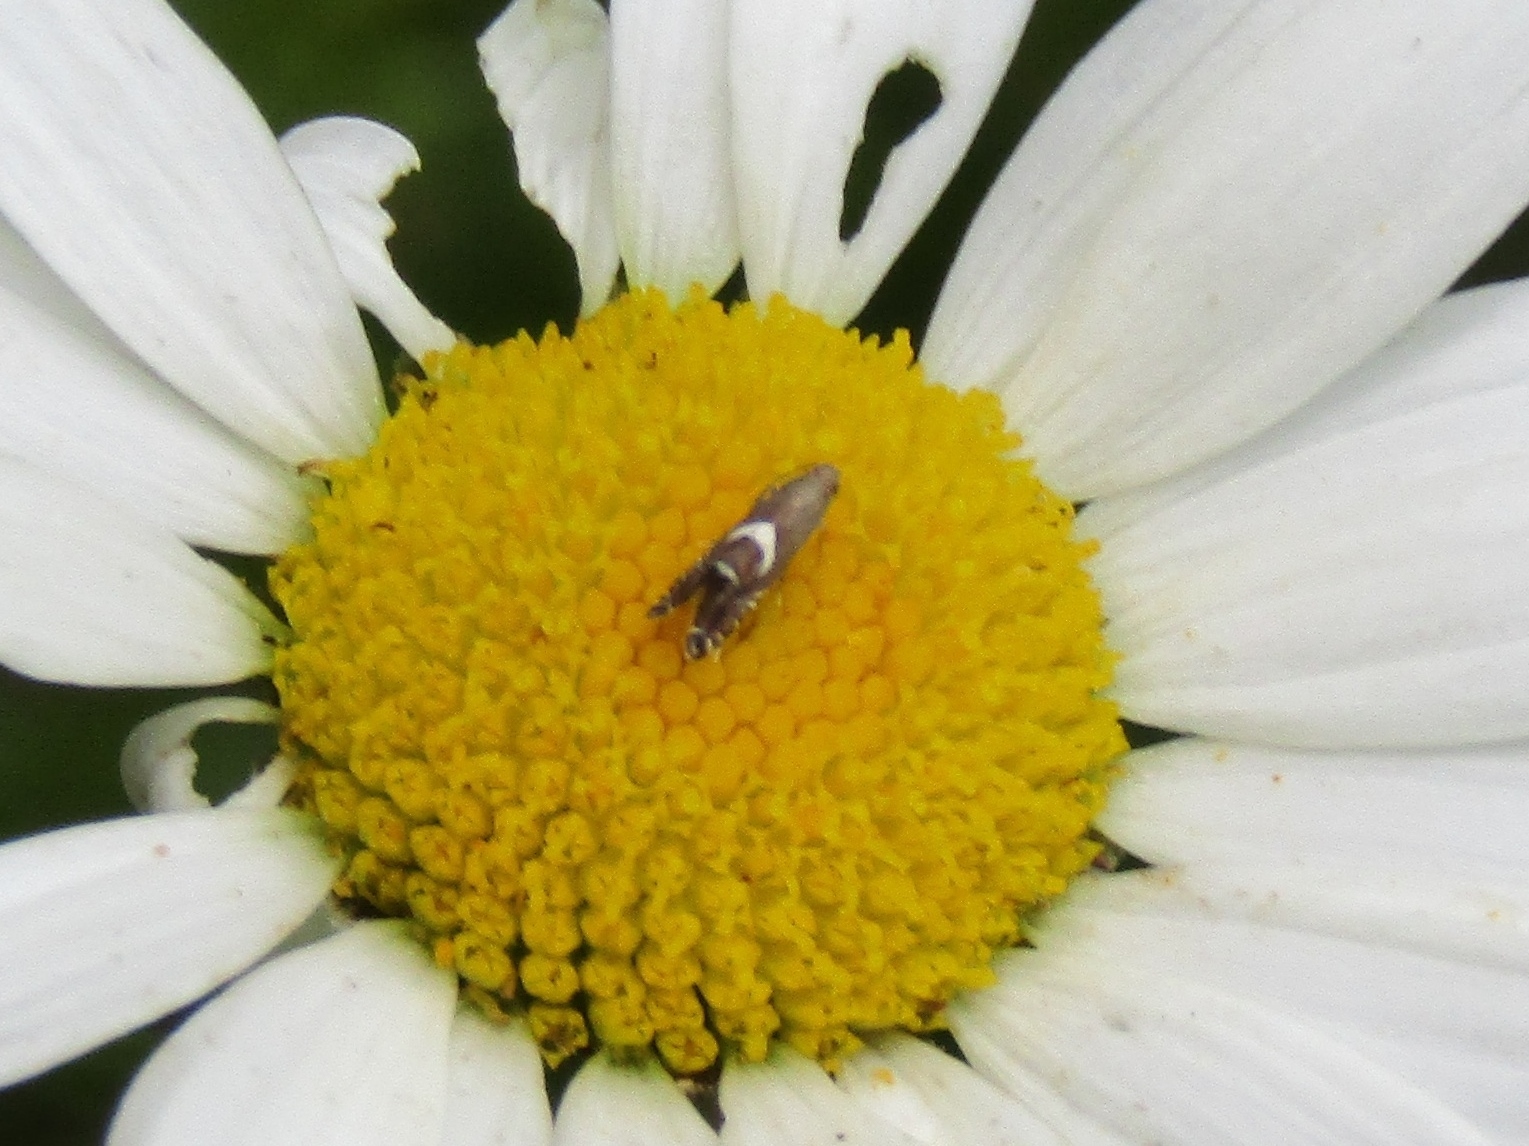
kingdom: Animalia
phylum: Arthropoda
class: Insecta
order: Lepidoptera
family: Glyphipterigidae
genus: Glyphipterix
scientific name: Glyphipterix Diploschizia impigritella
